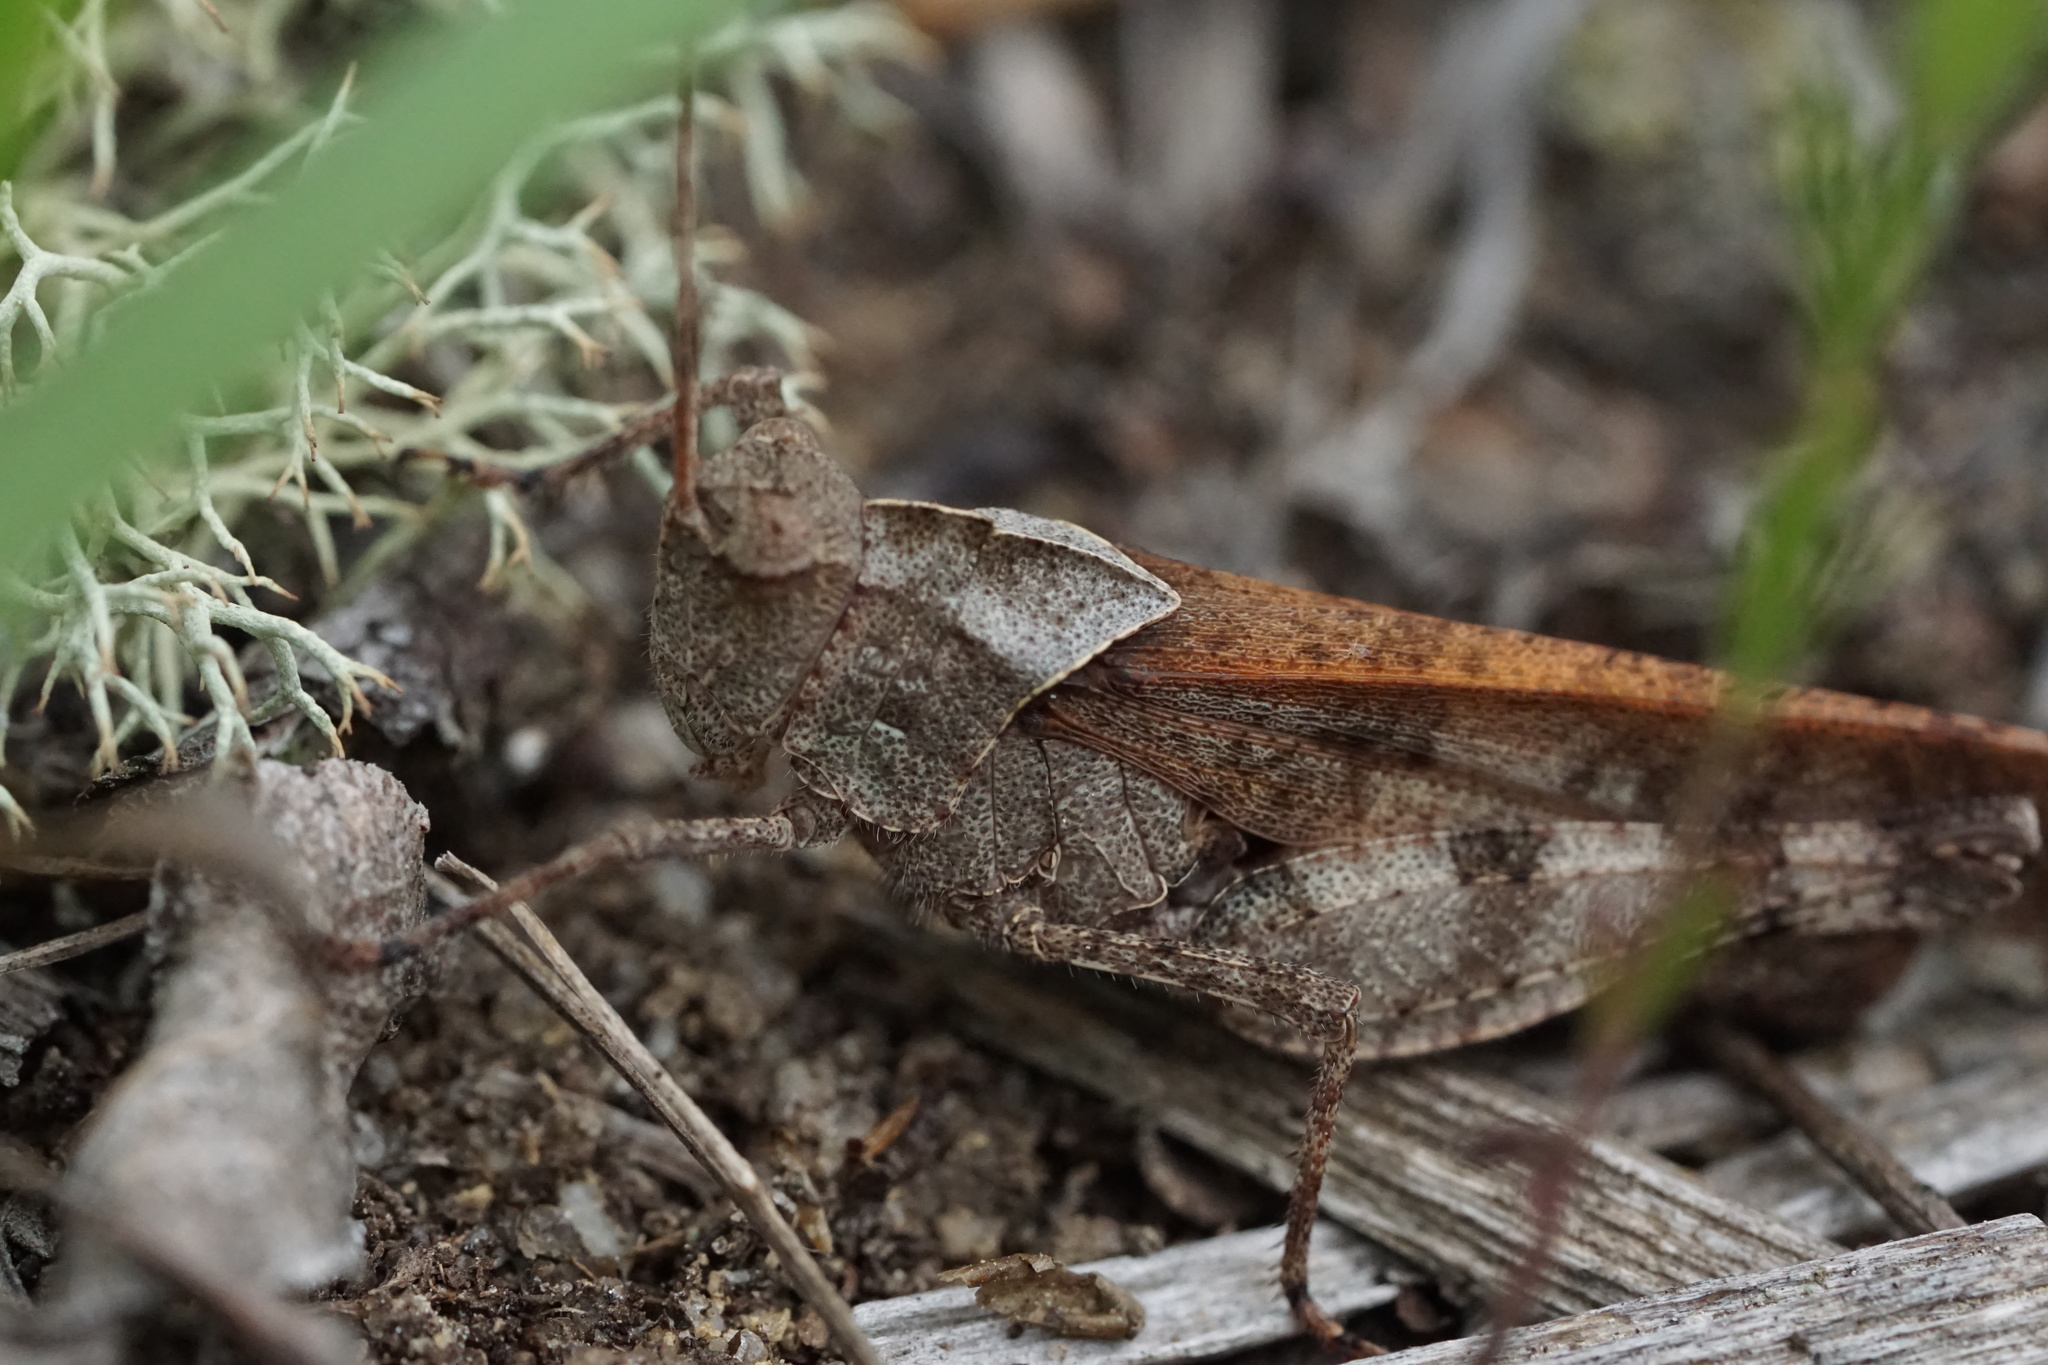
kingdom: Animalia
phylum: Arthropoda
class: Insecta
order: Orthoptera
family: Acrididae
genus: Spharagemon
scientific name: Spharagemon bolli
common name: Boll's grasshopper
